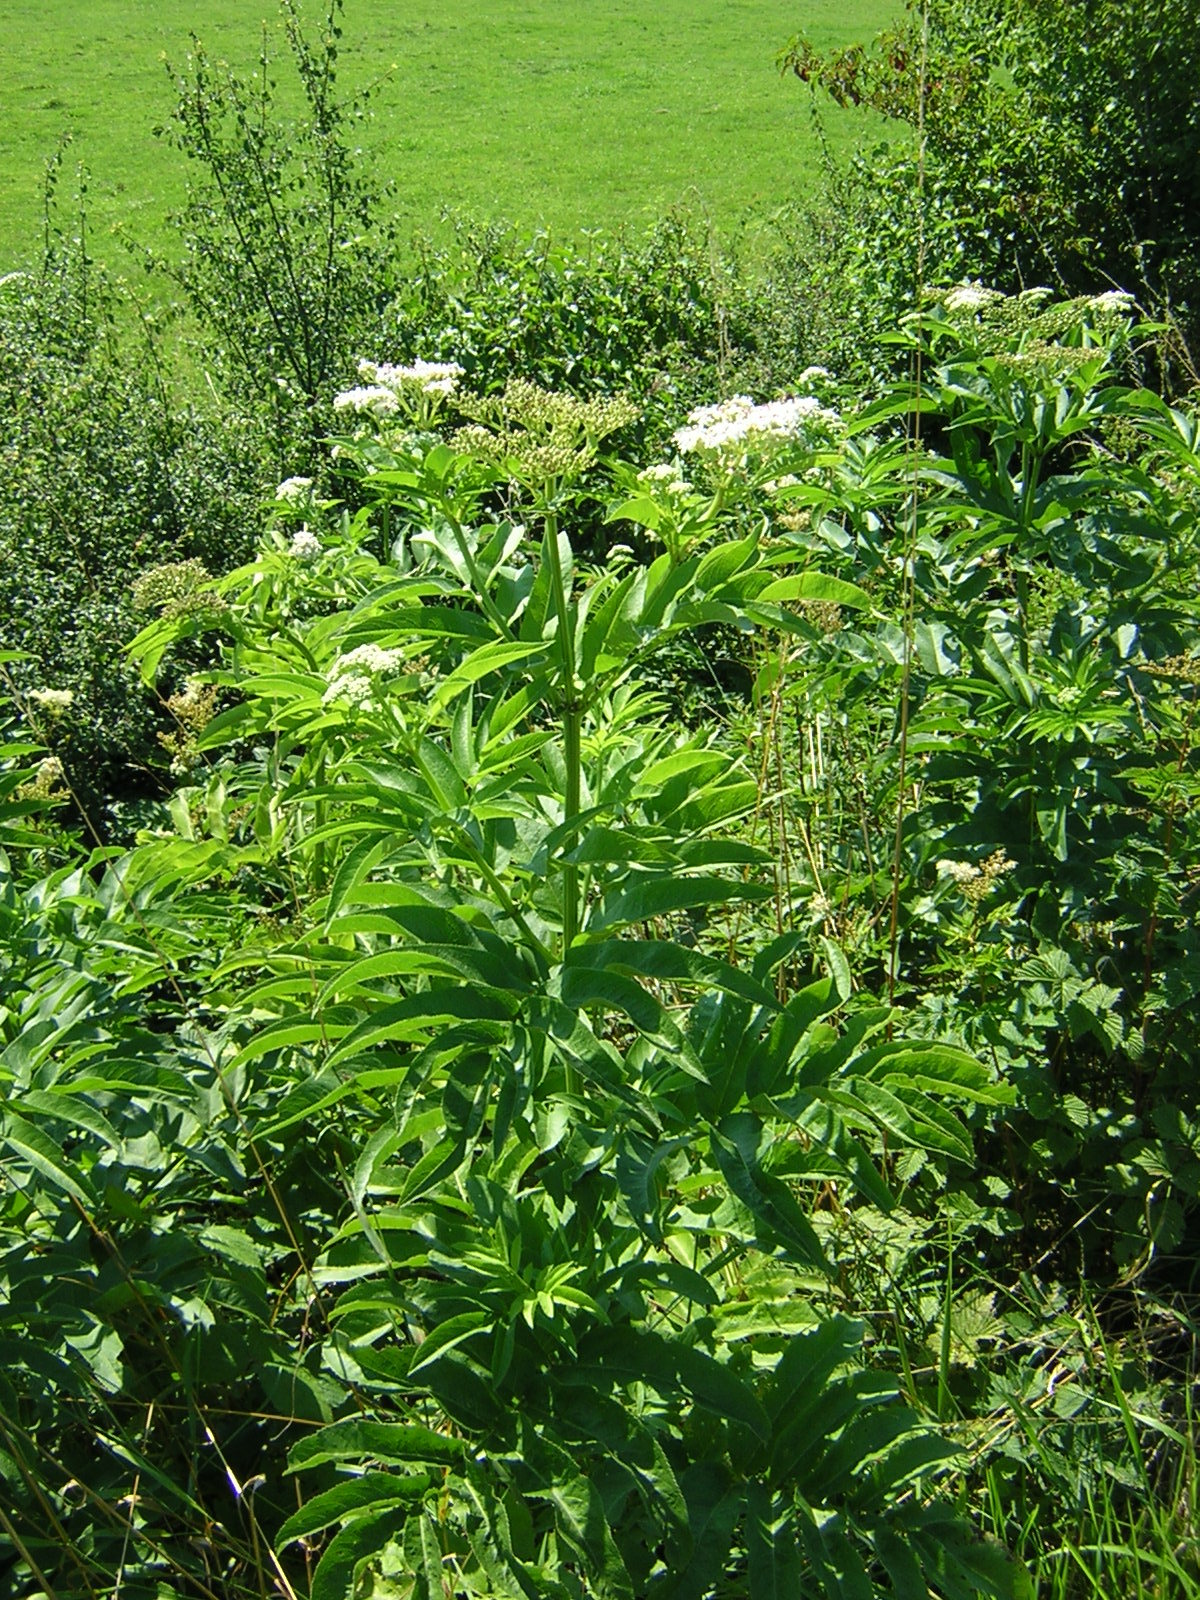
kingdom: Plantae
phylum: Tracheophyta
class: Magnoliopsida
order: Dipsacales
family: Viburnaceae
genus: Sambucus
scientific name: Sambucus ebulus
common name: Dwarf elder
